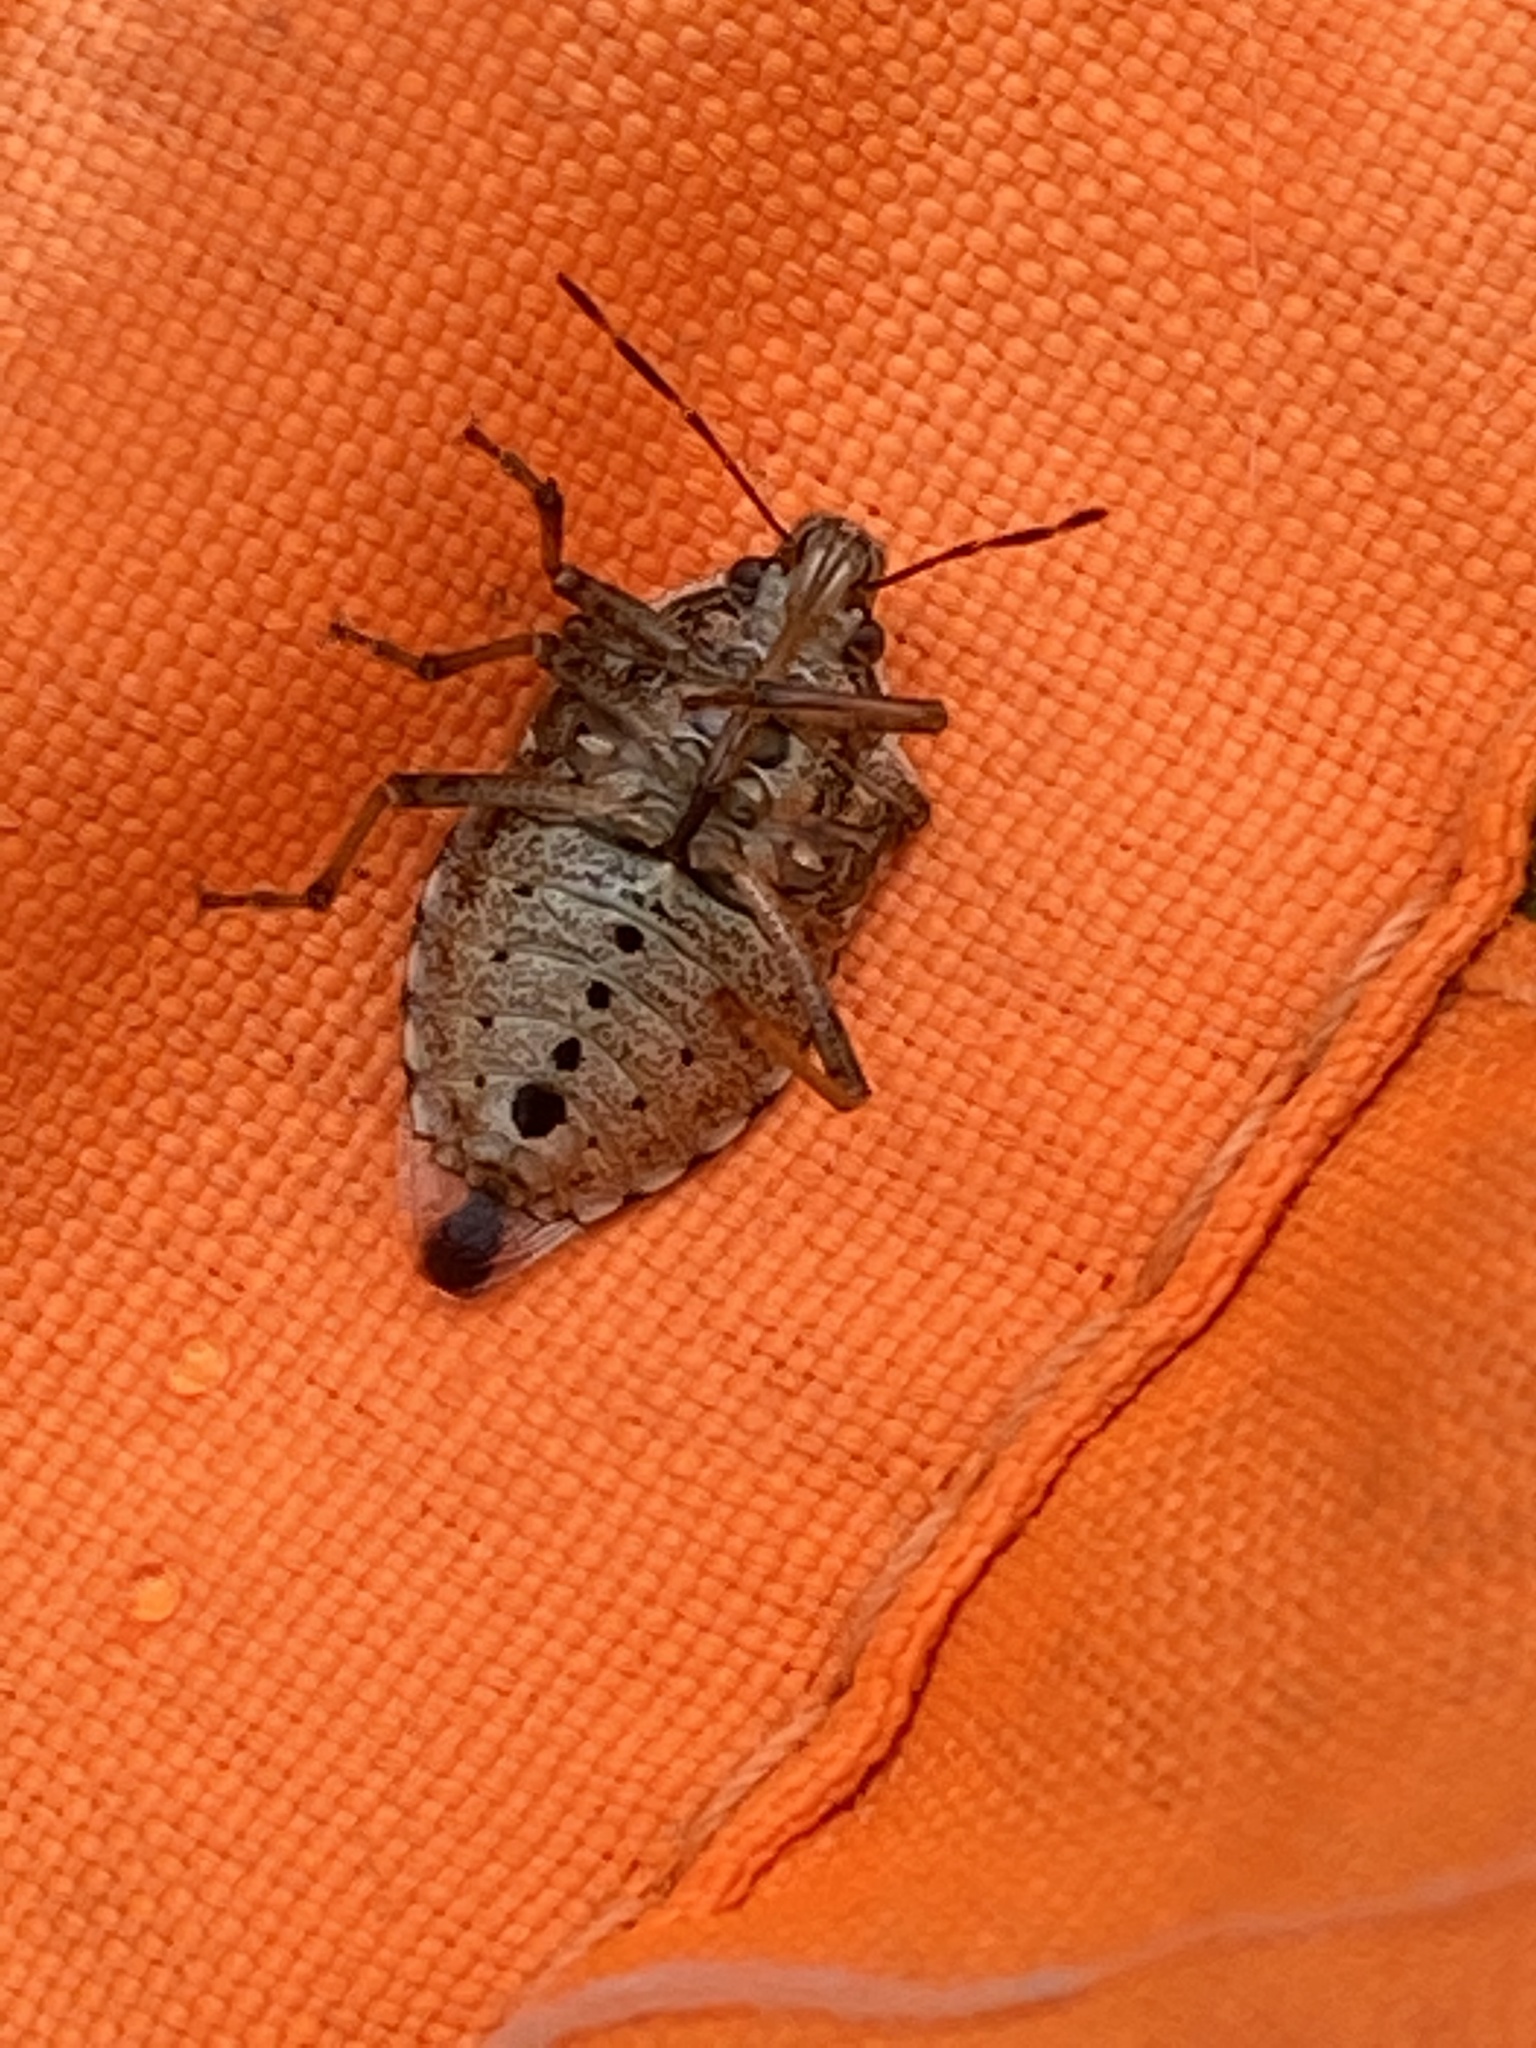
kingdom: Animalia
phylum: Arthropoda
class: Insecta
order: Hemiptera
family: Pentatomidae
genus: Podisus
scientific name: Podisus serieventris
